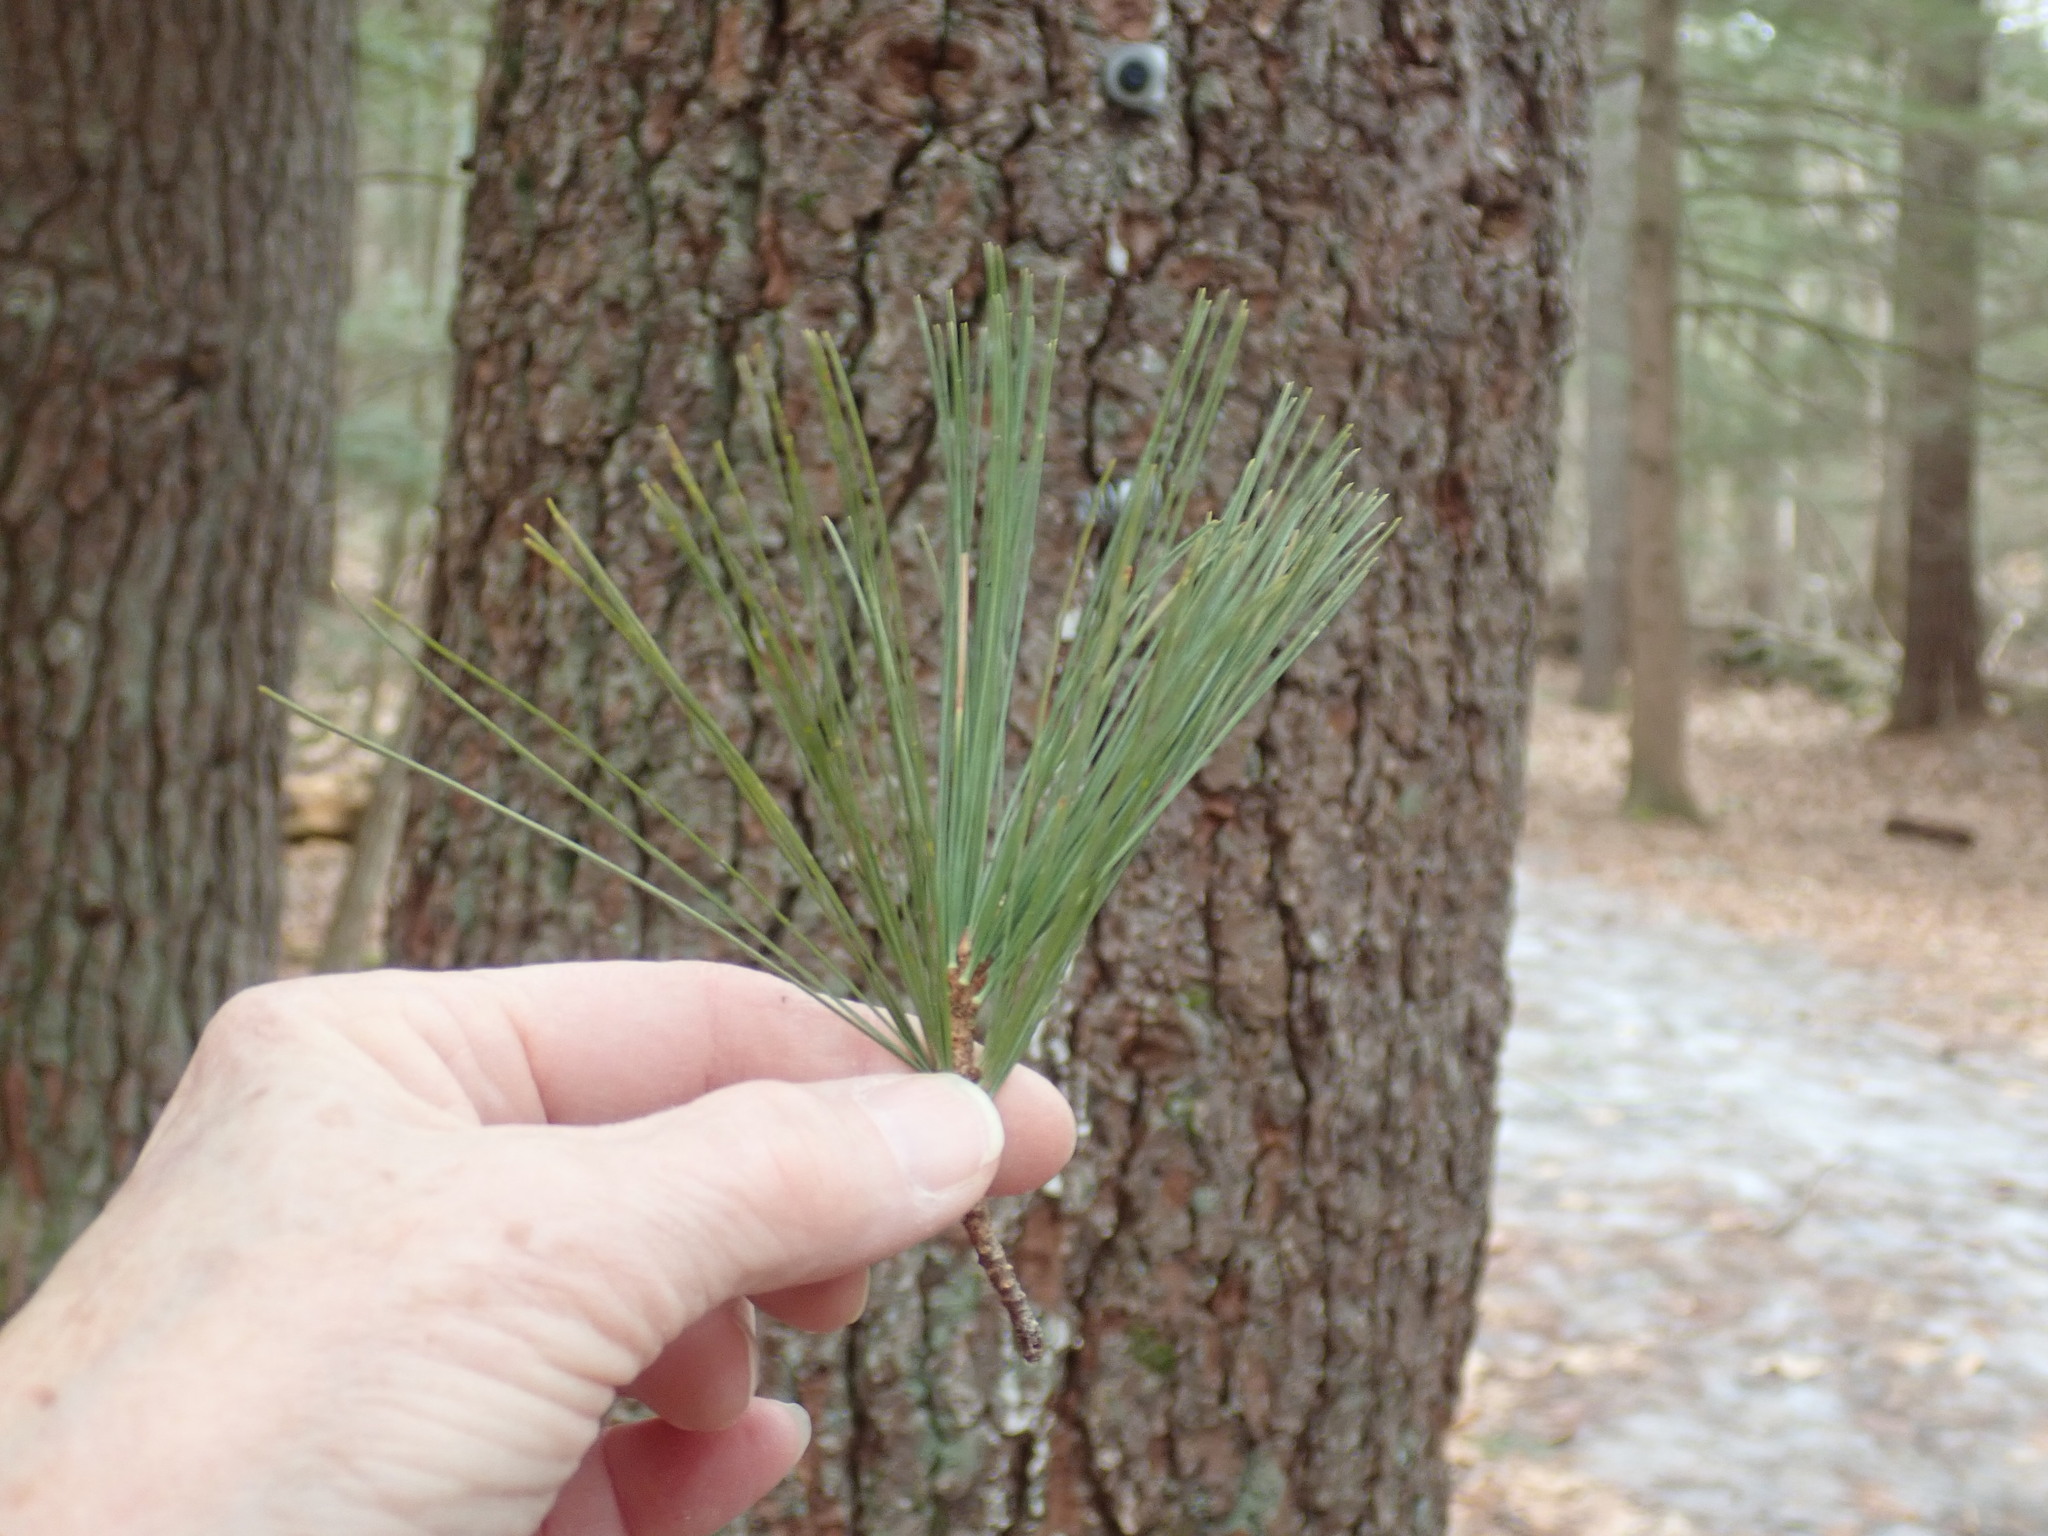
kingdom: Plantae
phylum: Tracheophyta
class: Pinopsida
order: Pinales
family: Pinaceae
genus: Pinus
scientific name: Pinus strobus
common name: Weymouth pine
